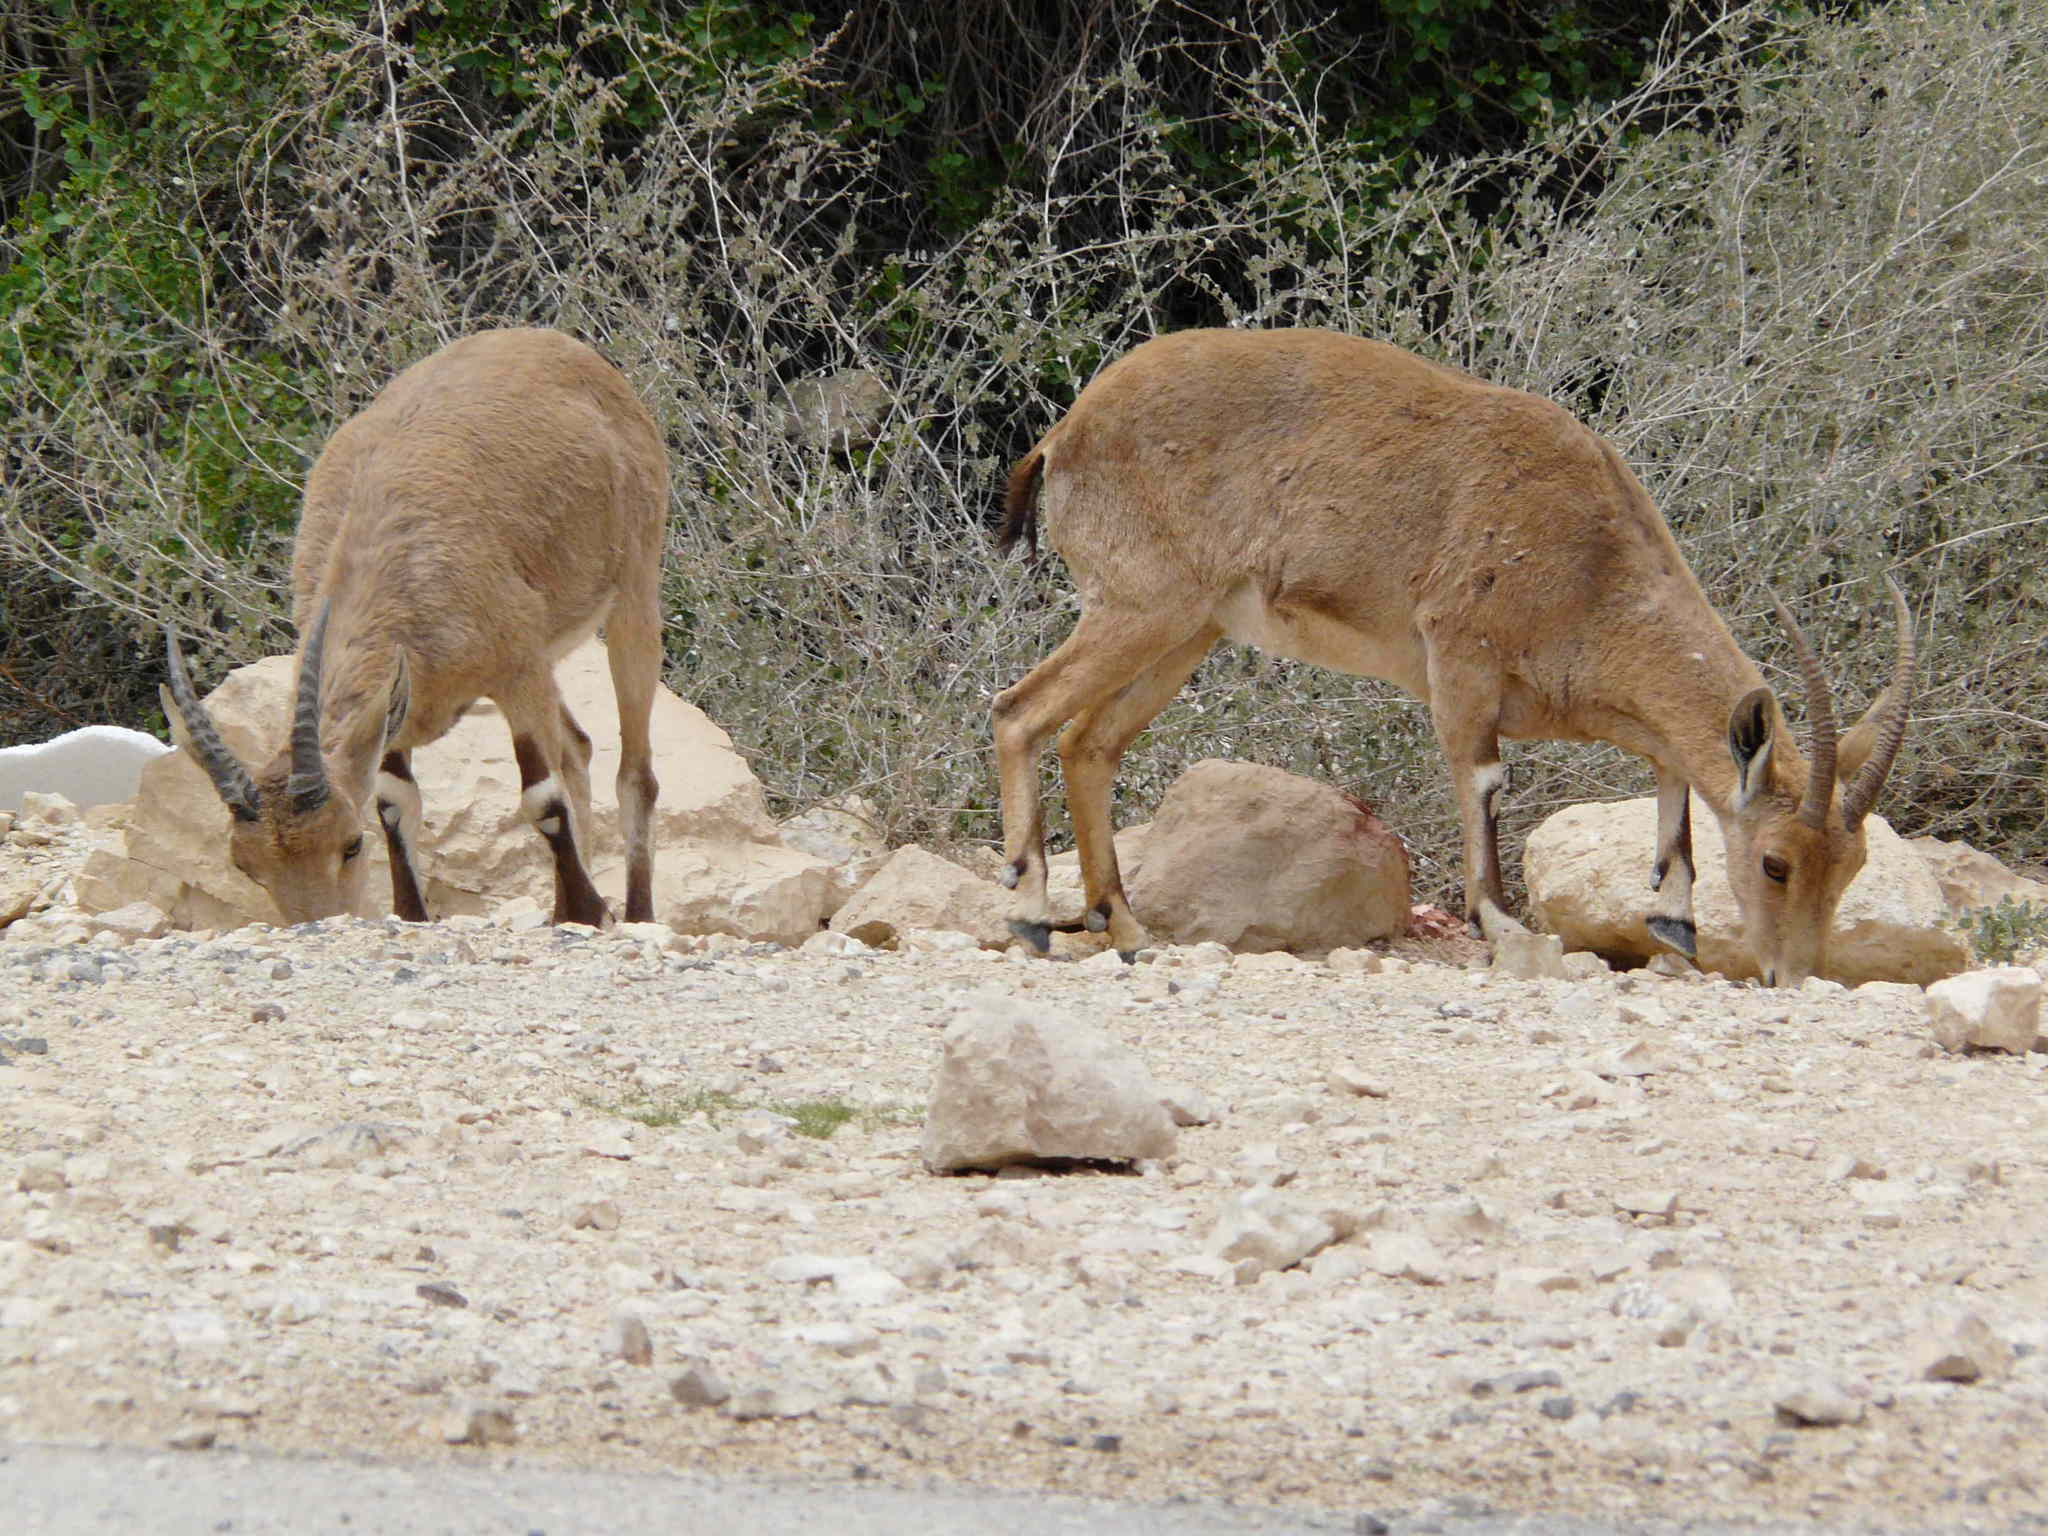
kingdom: Animalia
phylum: Chordata
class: Mammalia
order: Artiodactyla
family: Bovidae
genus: Capra
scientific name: Capra nubiana
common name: Nubian ibex
